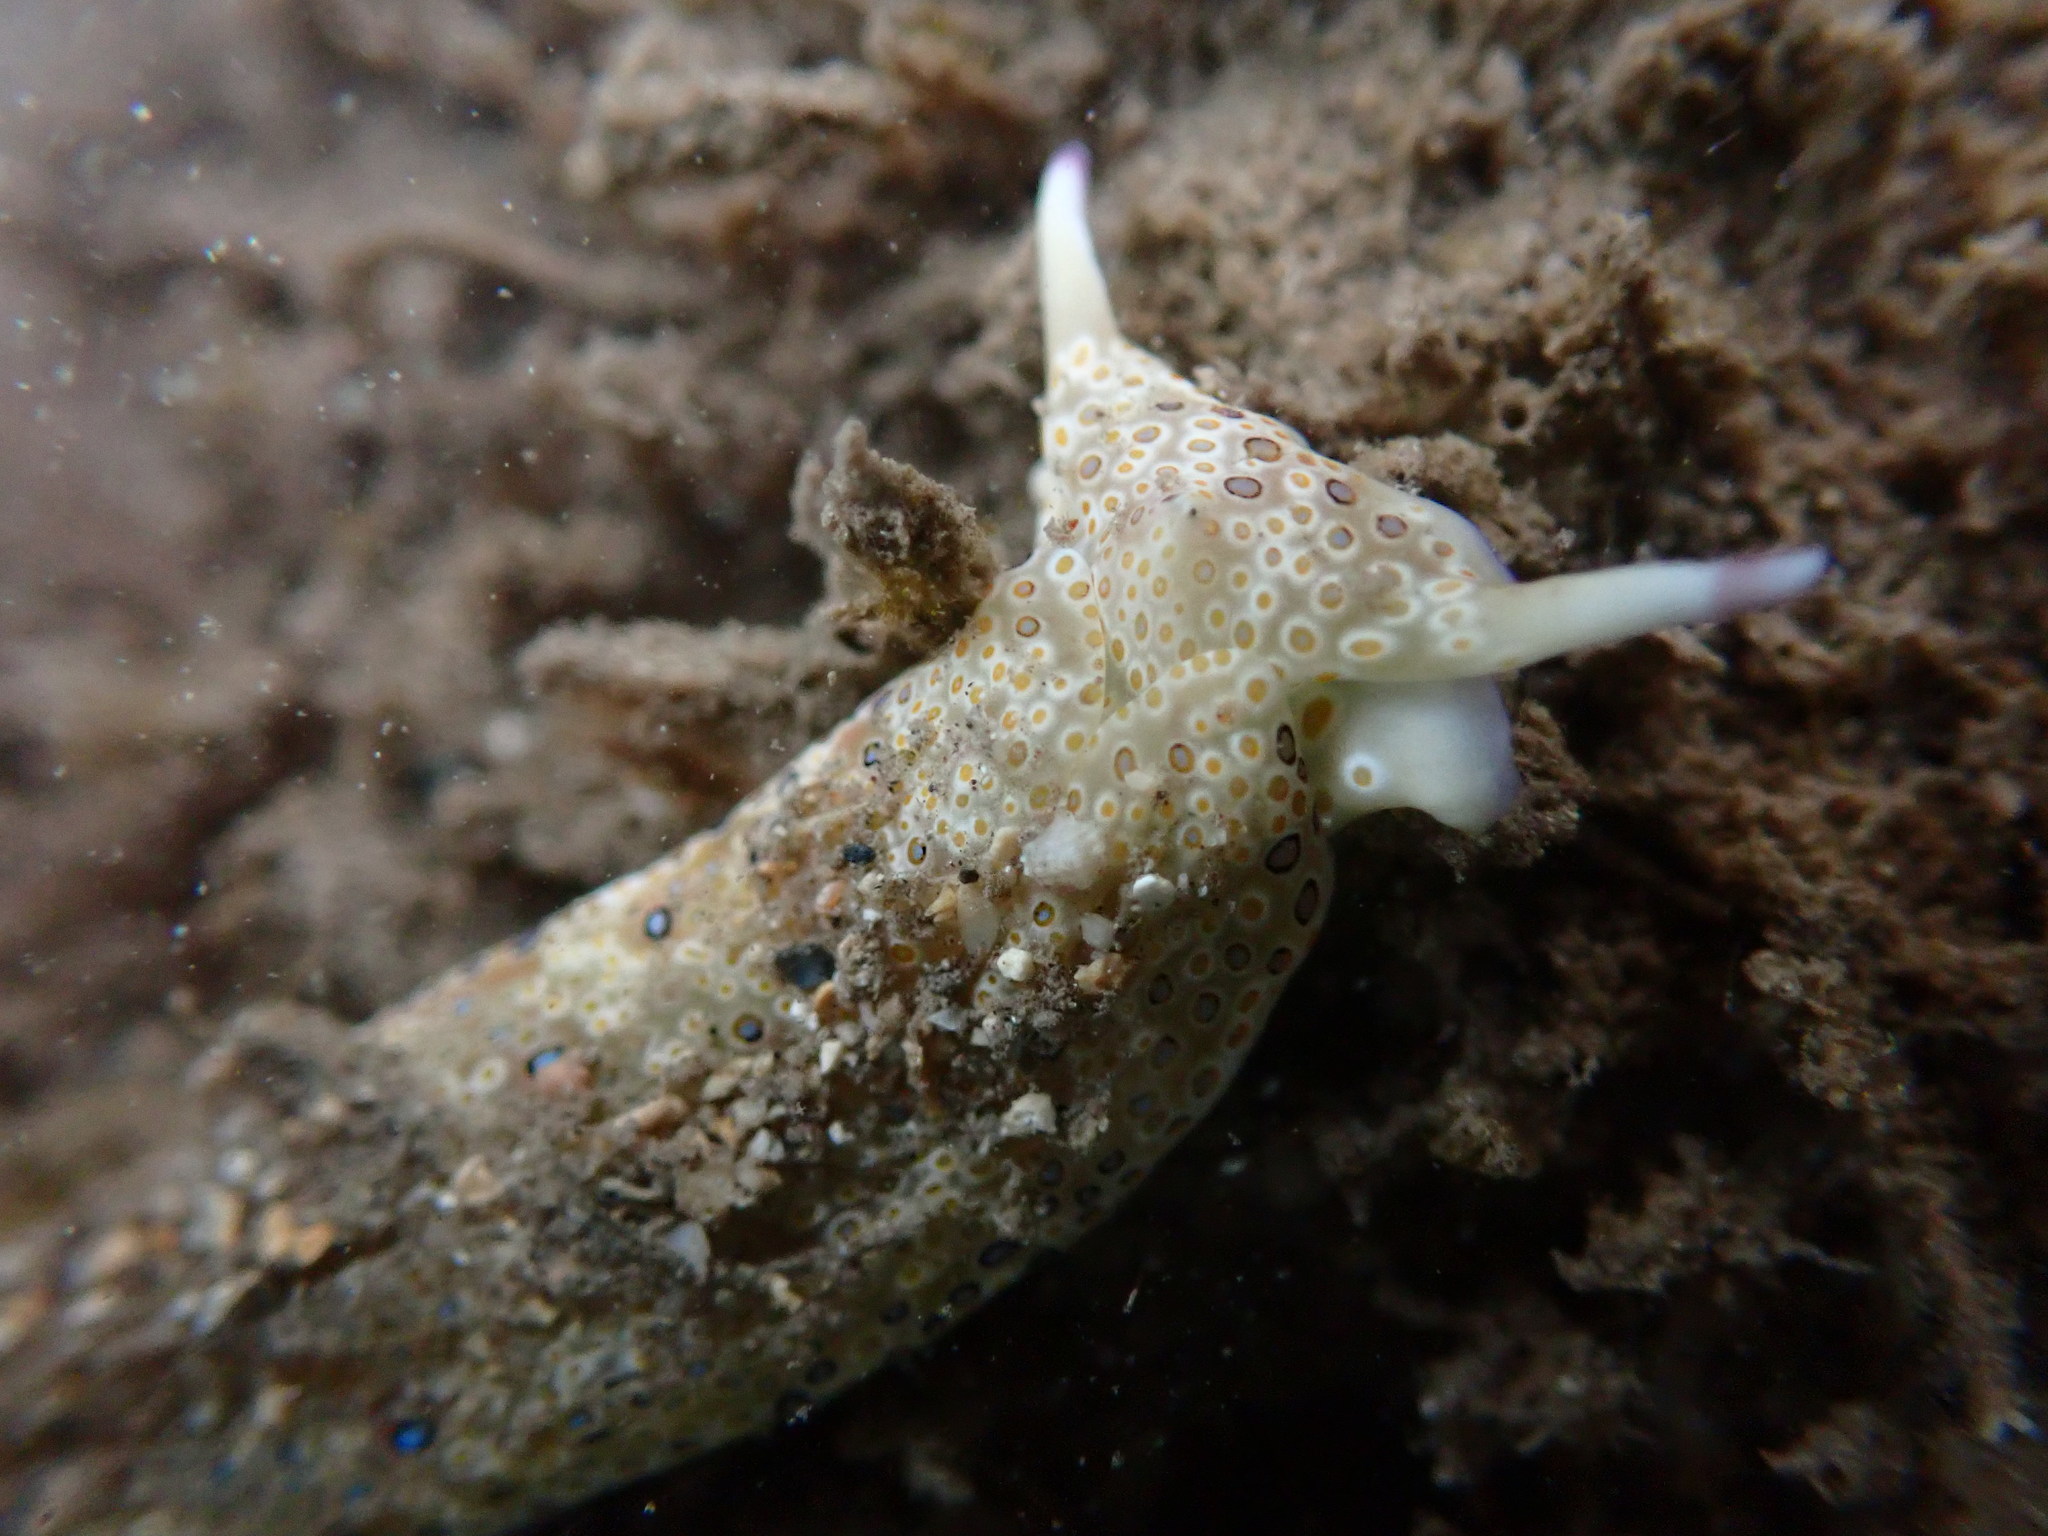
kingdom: Animalia
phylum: Mollusca
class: Gastropoda
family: Plakobranchidae
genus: Plakobranchus
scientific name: Plakobranchus ocellatus
